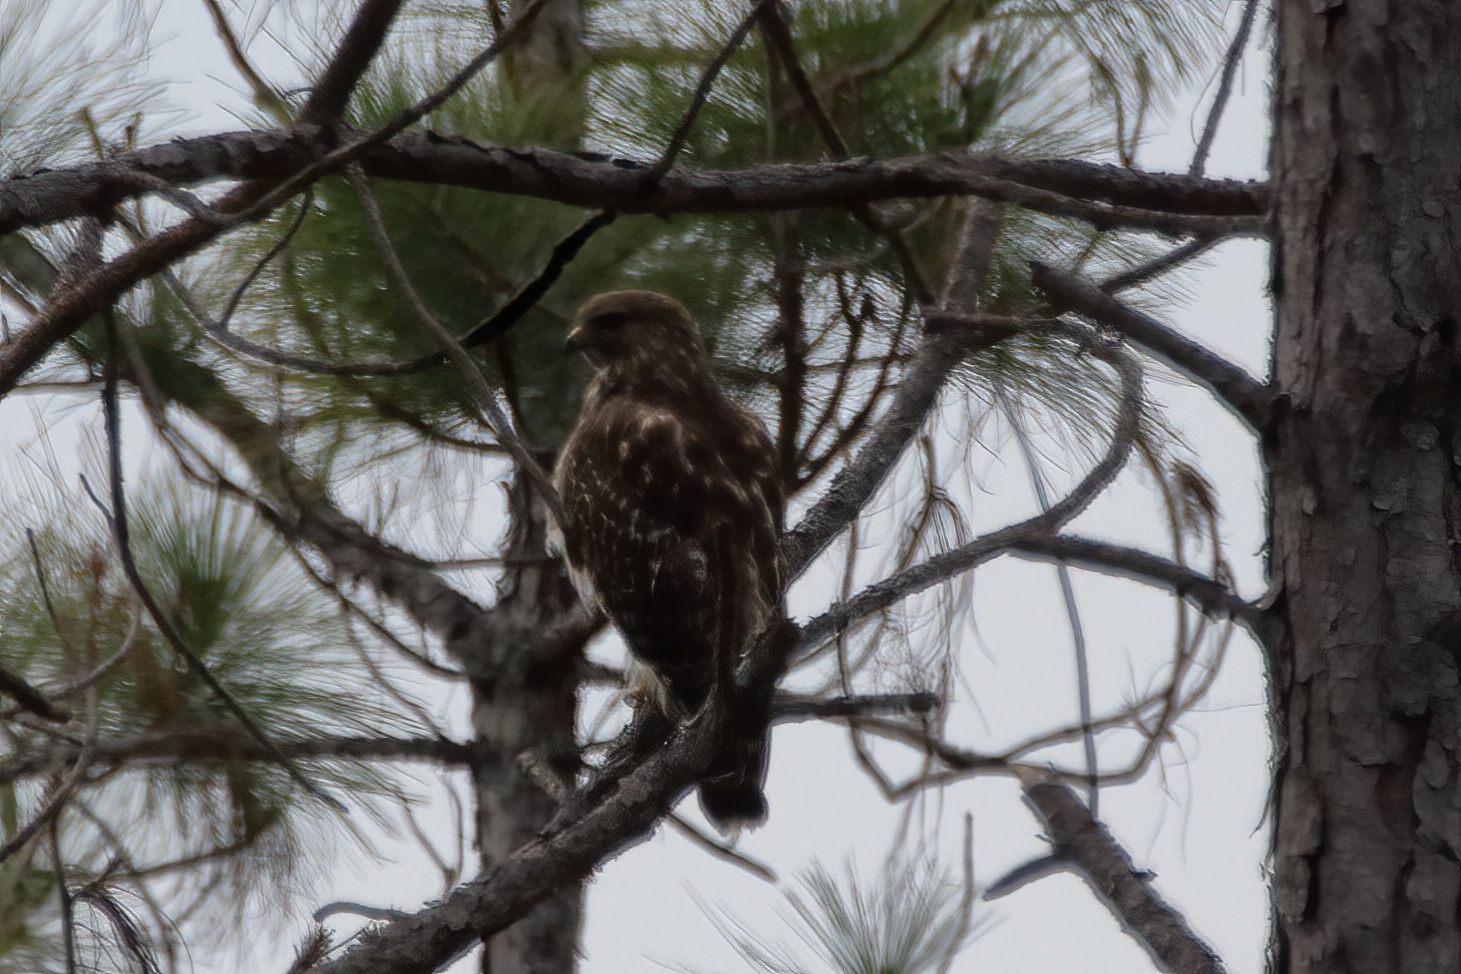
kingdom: Animalia
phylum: Chordata
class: Aves
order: Accipitriformes
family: Accipitridae
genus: Buteo
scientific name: Buteo lineatus
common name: Red-shouldered hawk
